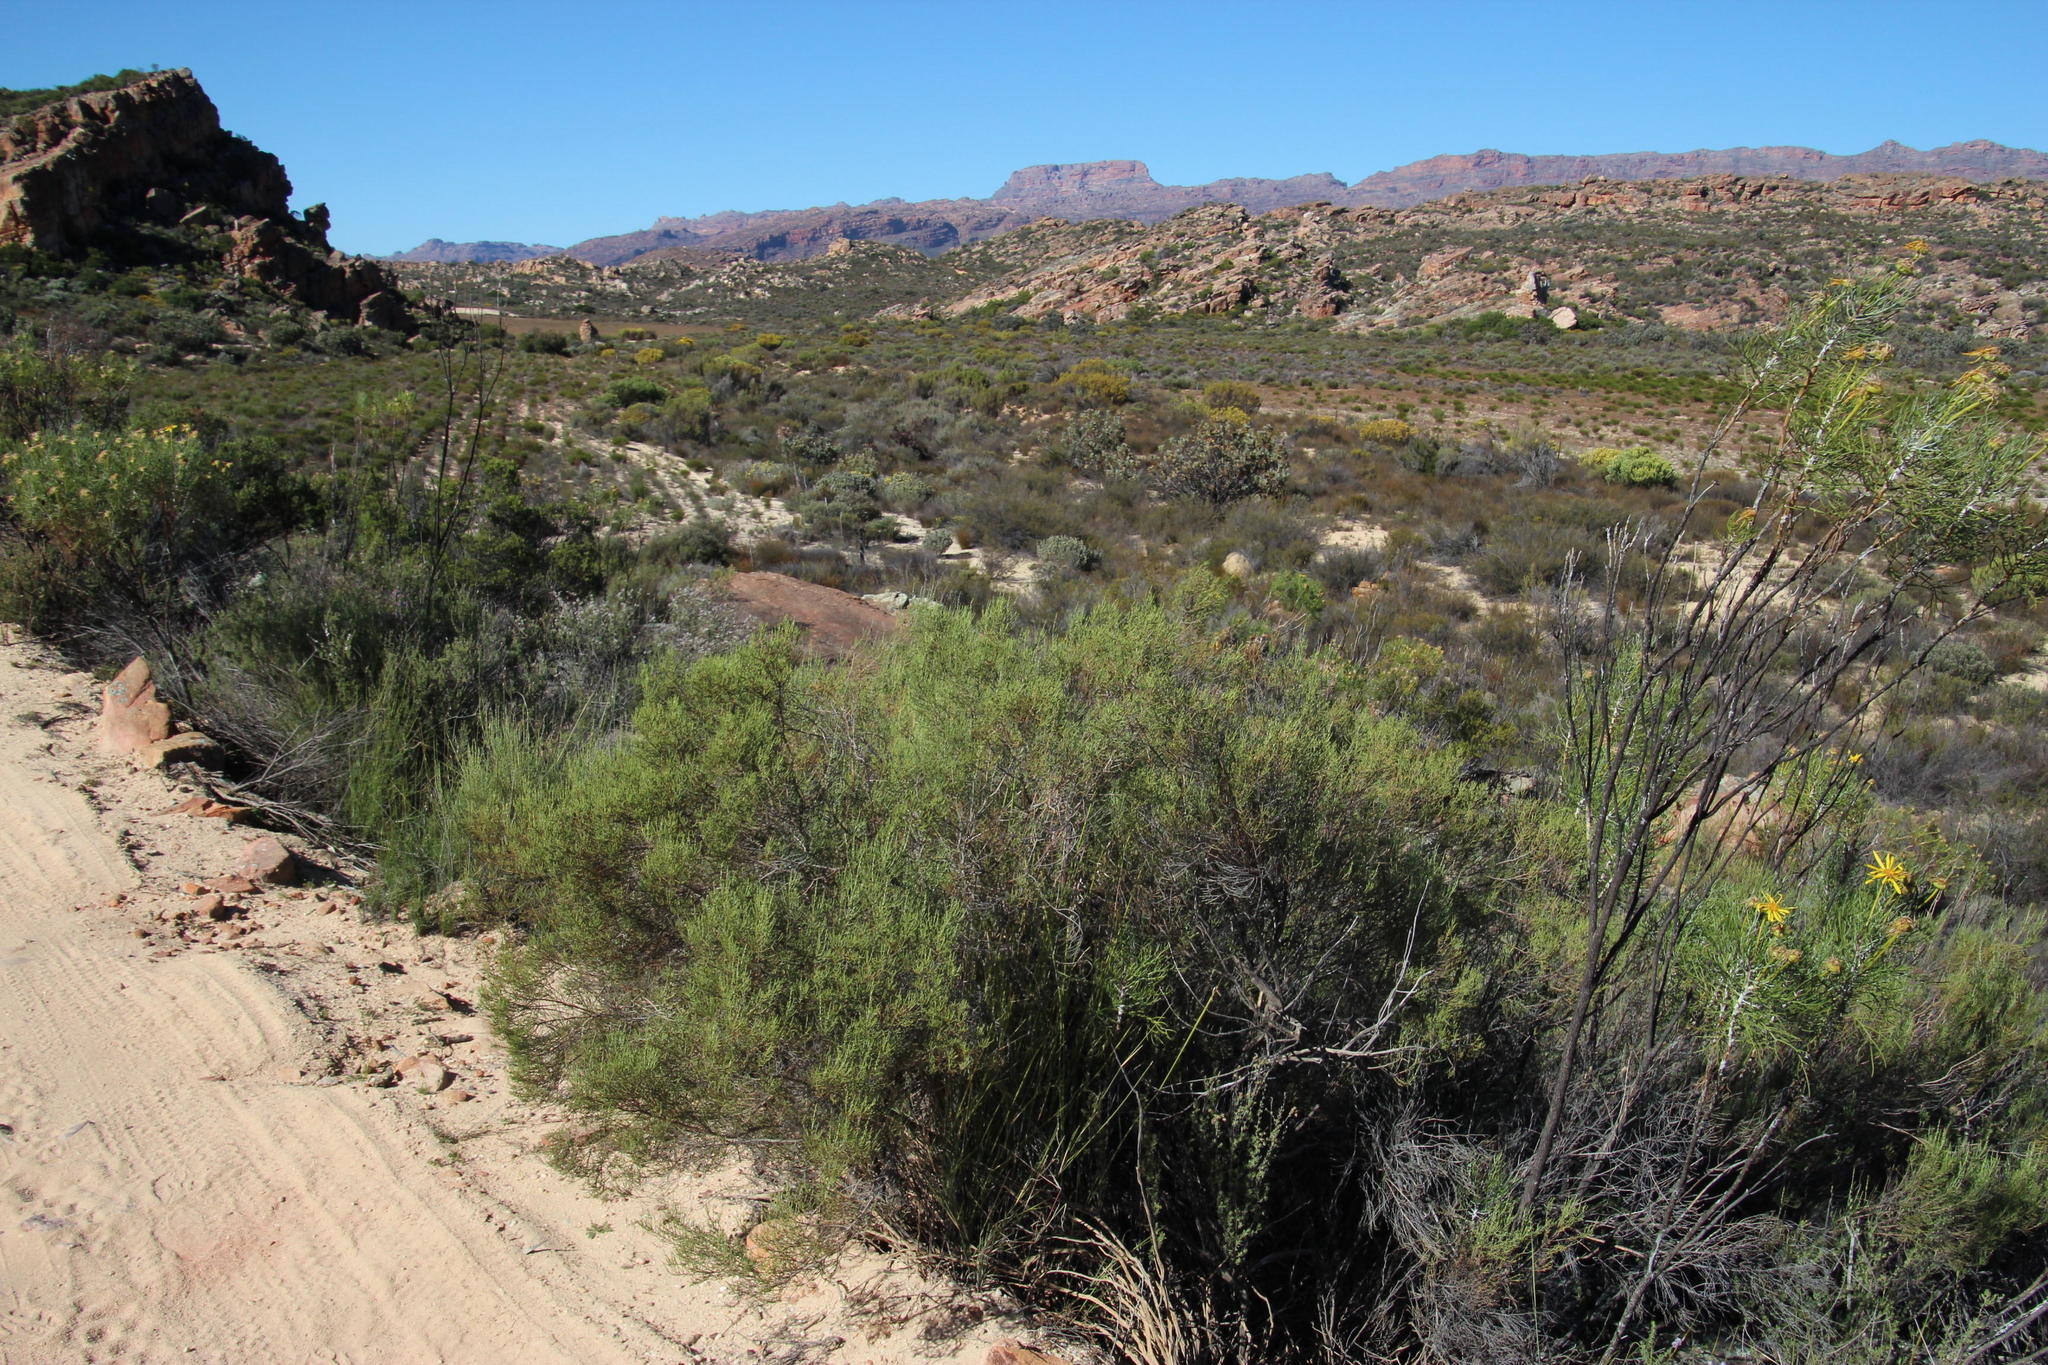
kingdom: Plantae
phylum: Tracheophyta
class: Magnoliopsida
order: Asterales
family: Asteraceae
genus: Dicerothamnus
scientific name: Dicerothamnus rhinocerotis
